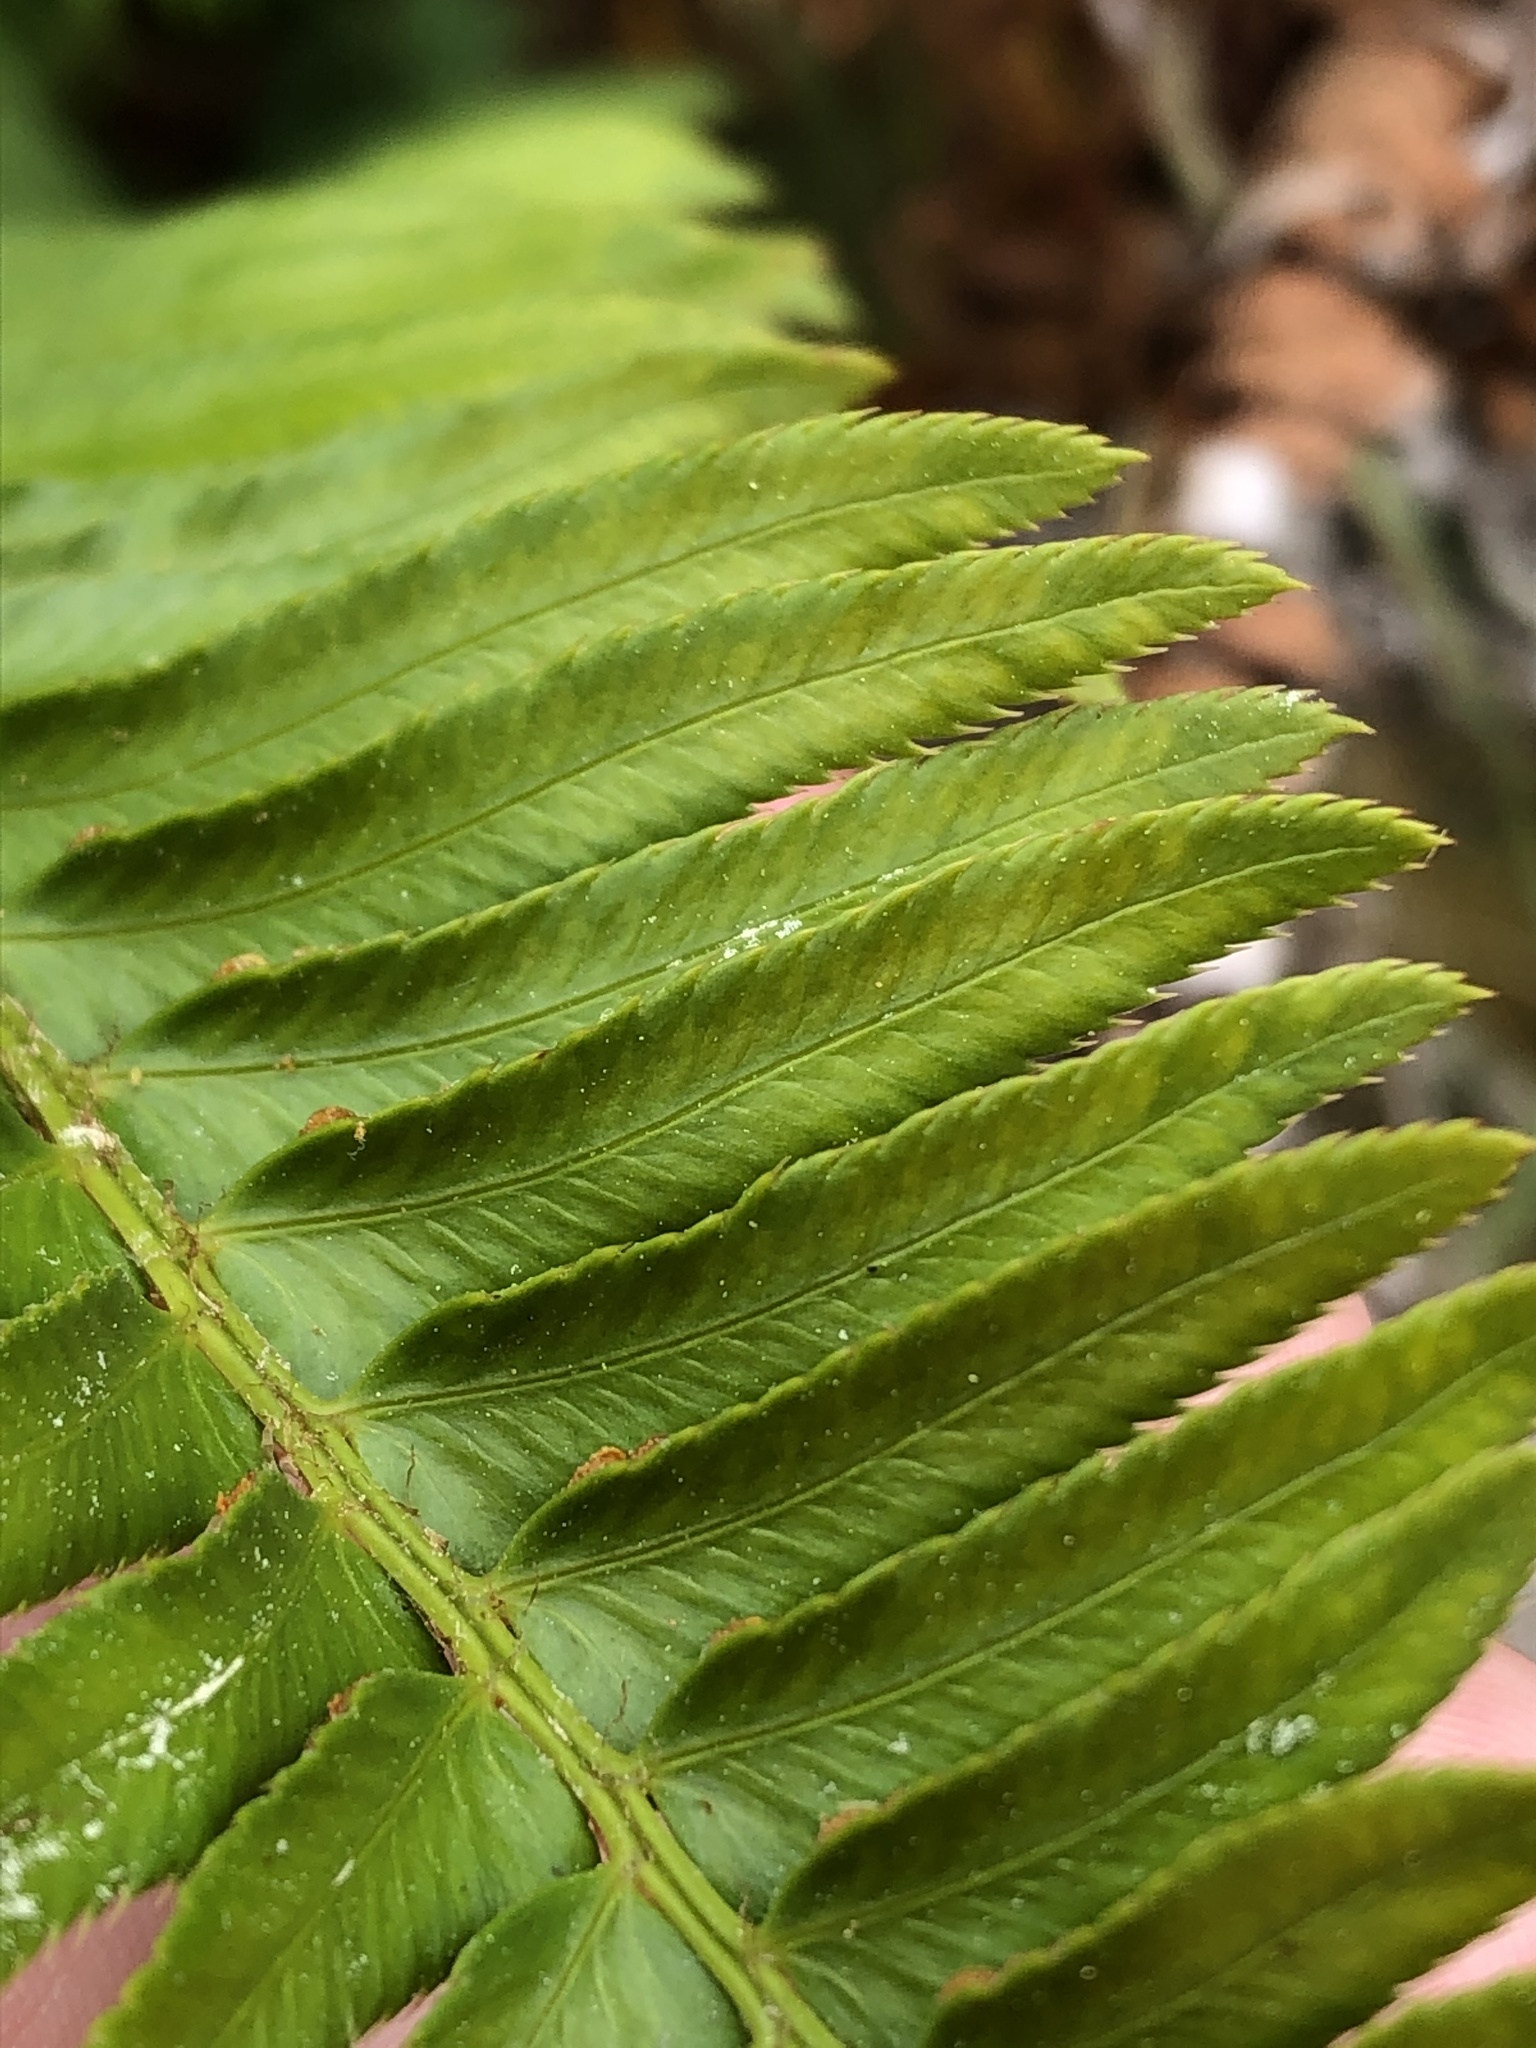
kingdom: Plantae
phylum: Tracheophyta
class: Polypodiopsida
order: Polypodiales
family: Dryopteridaceae
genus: Polystichum
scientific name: Polystichum munitum
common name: Western sword-fern
